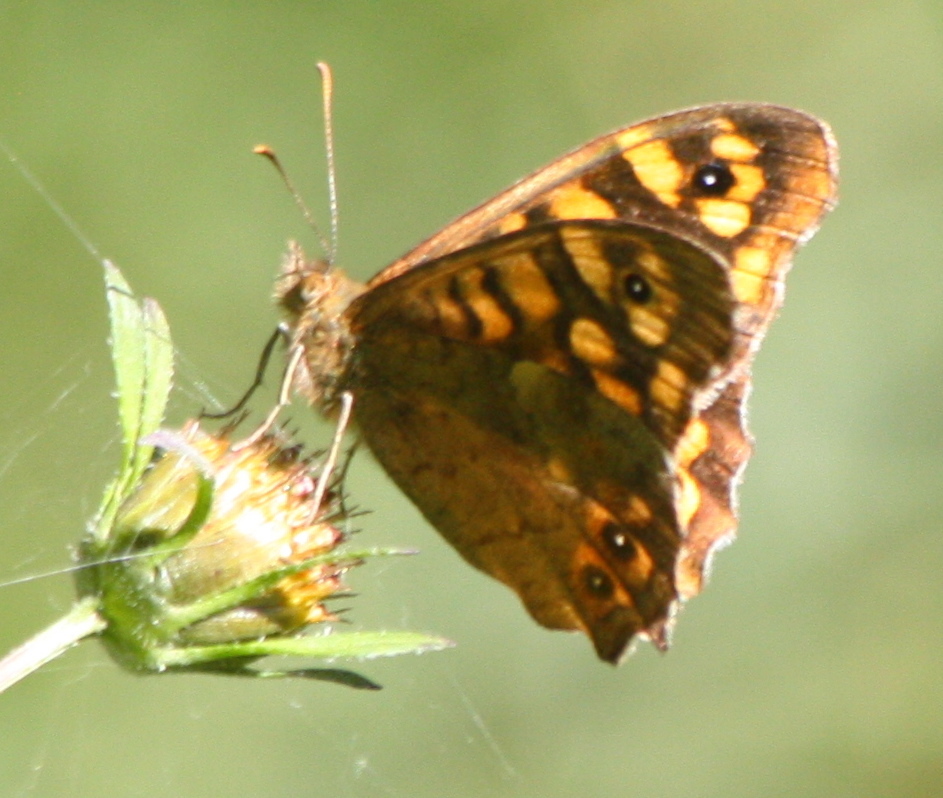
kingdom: Animalia
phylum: Arthropoda
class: Insecta
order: Lepidoptera
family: Nymphalidae
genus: Pararge
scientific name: Pararge aegeria
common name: Speckled wood
